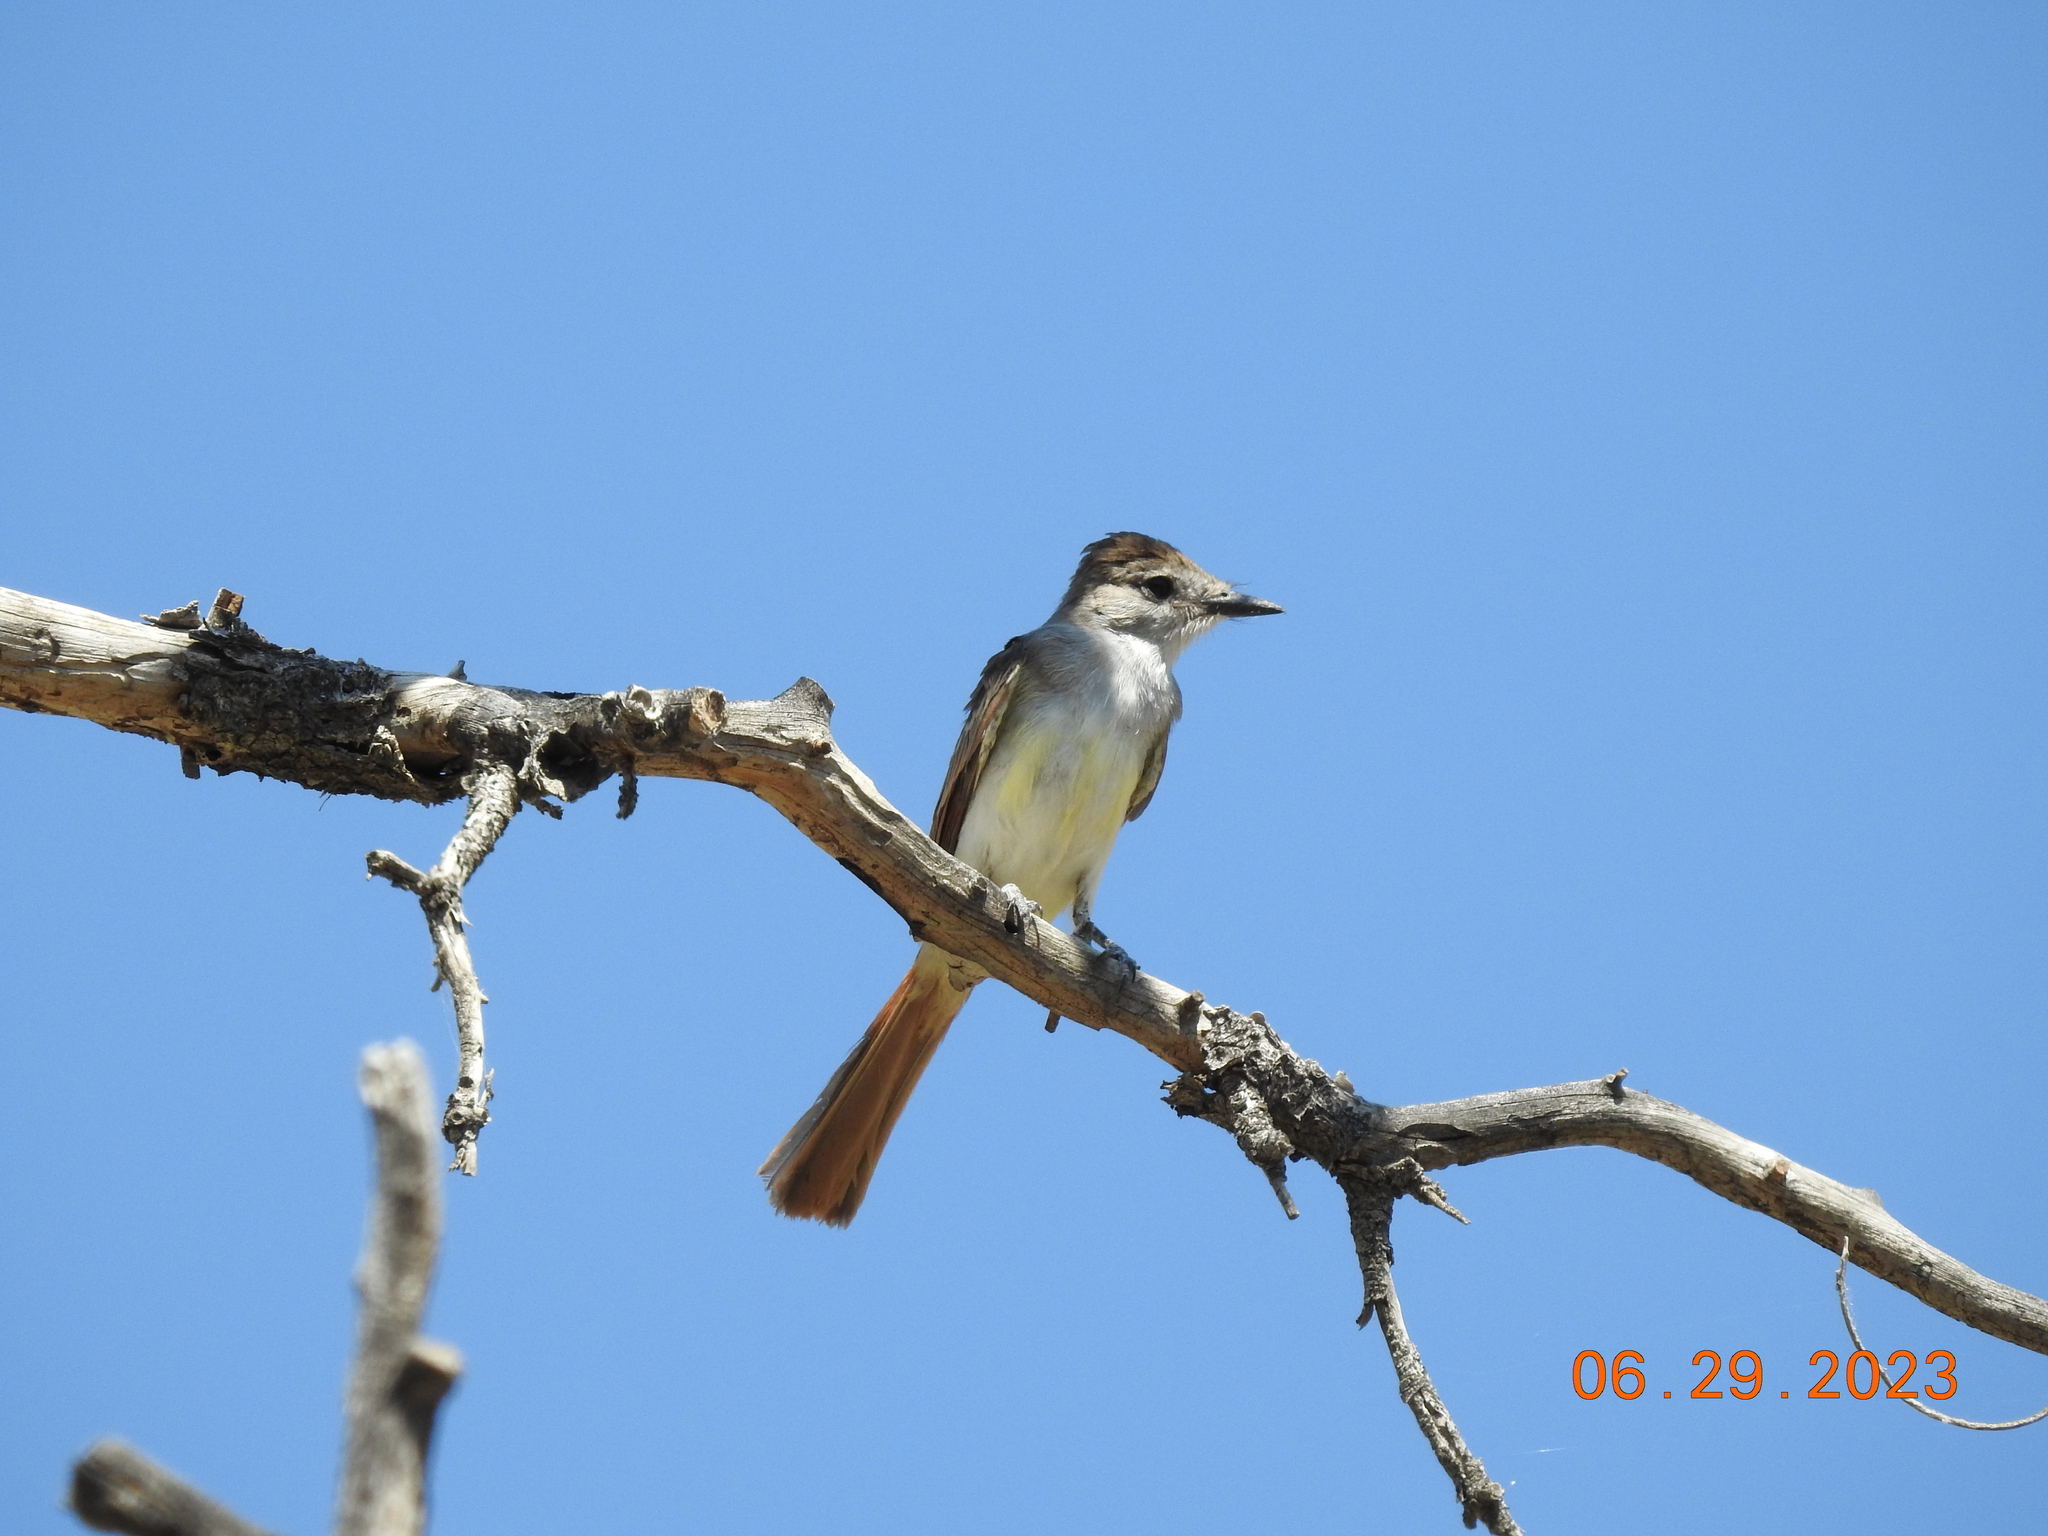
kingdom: Animalia
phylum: Chordata
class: Aves
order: Passeriformes
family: Tyrannidae
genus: Myiarchus
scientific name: Myiarchus cinerascens
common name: Ash-throated flycatcher
